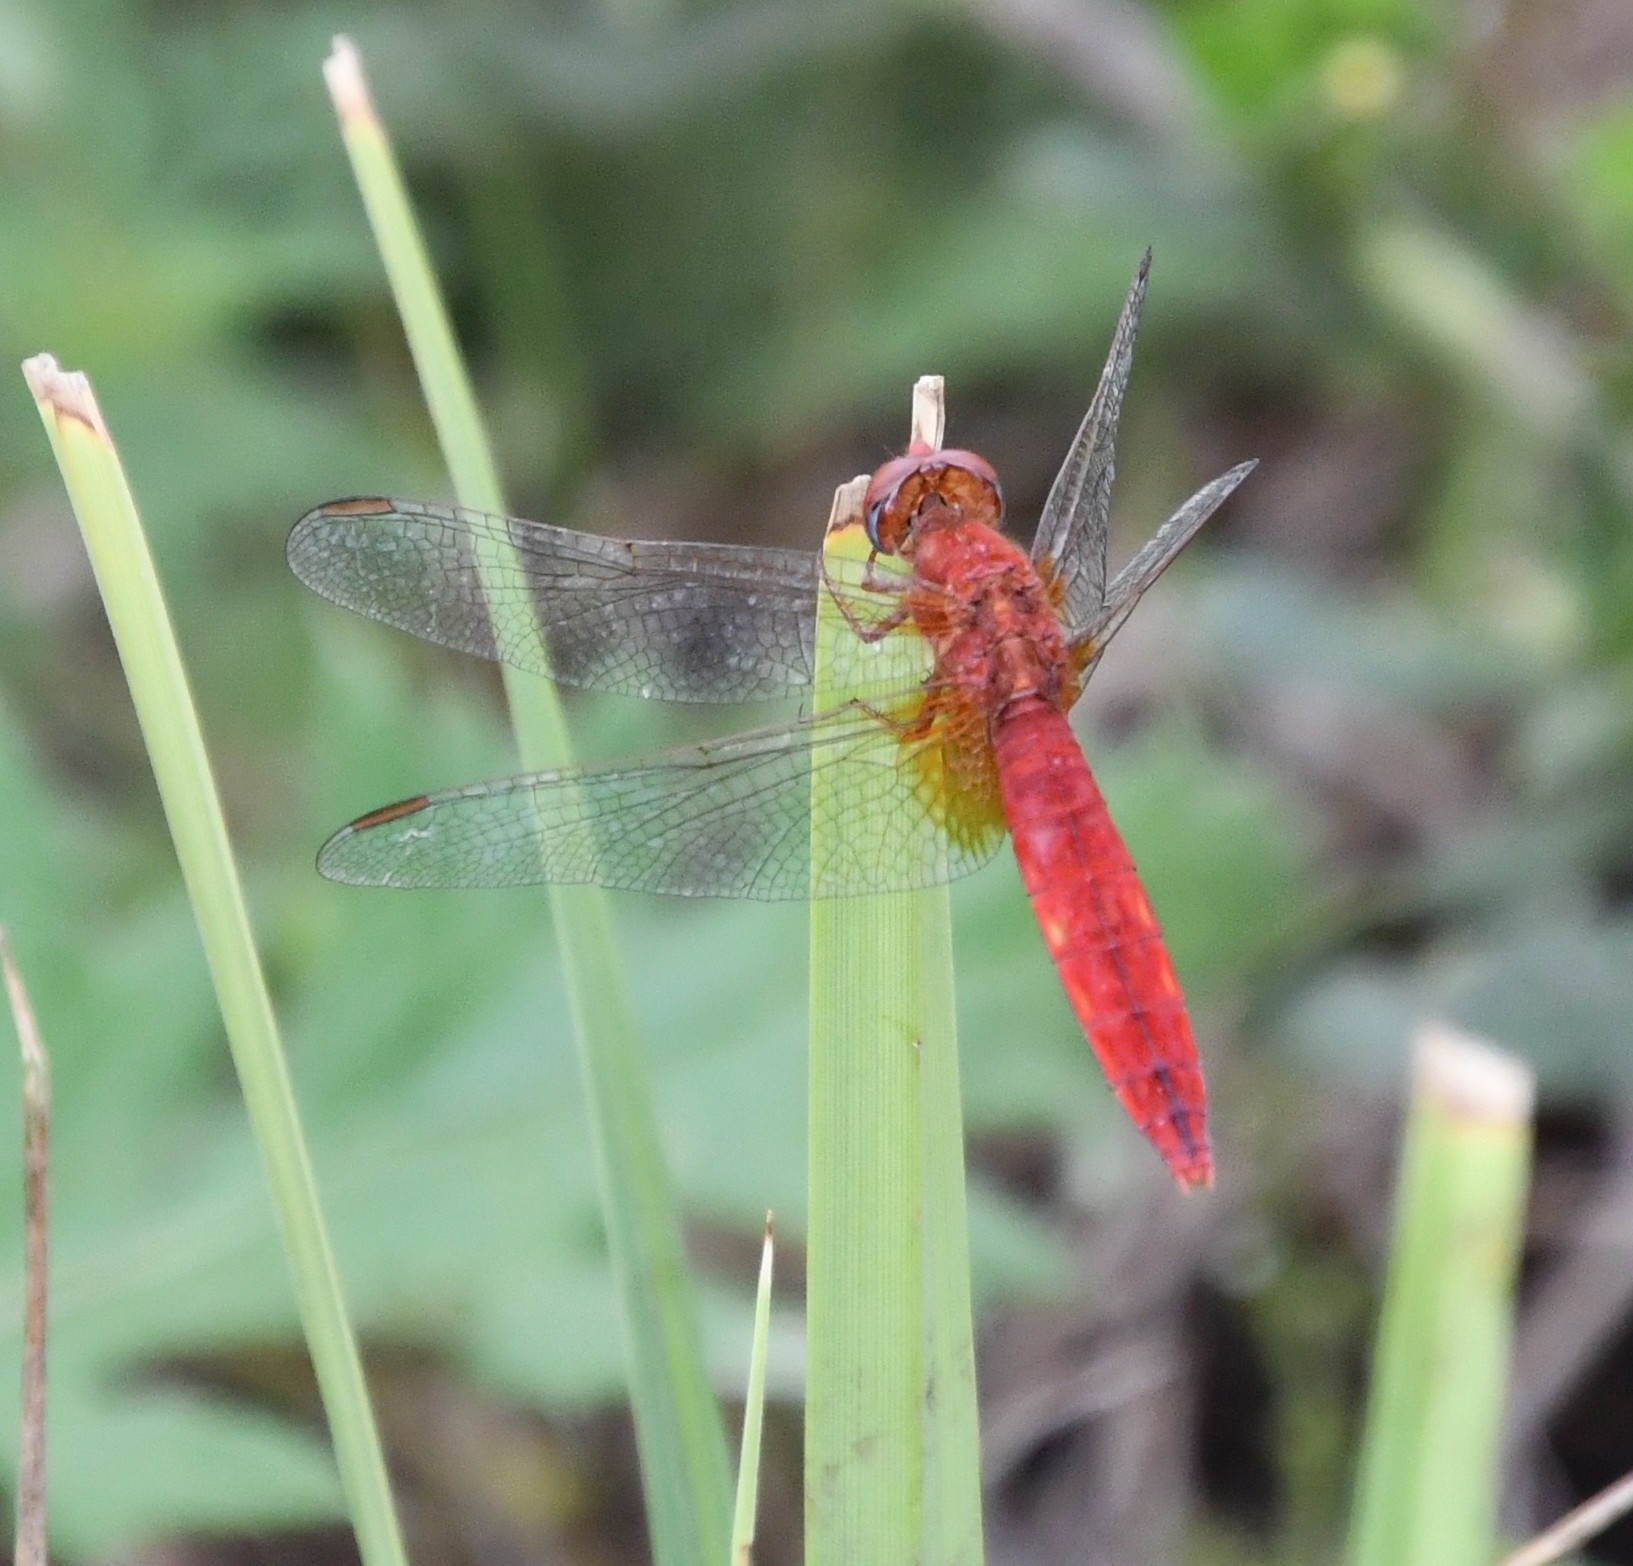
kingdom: Animalia
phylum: Arthropoda
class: Insecta
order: Odonata
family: Libellulidae
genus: Crocothemis
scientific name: Crocothemis erythraea
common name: Scarlet dragonfly
